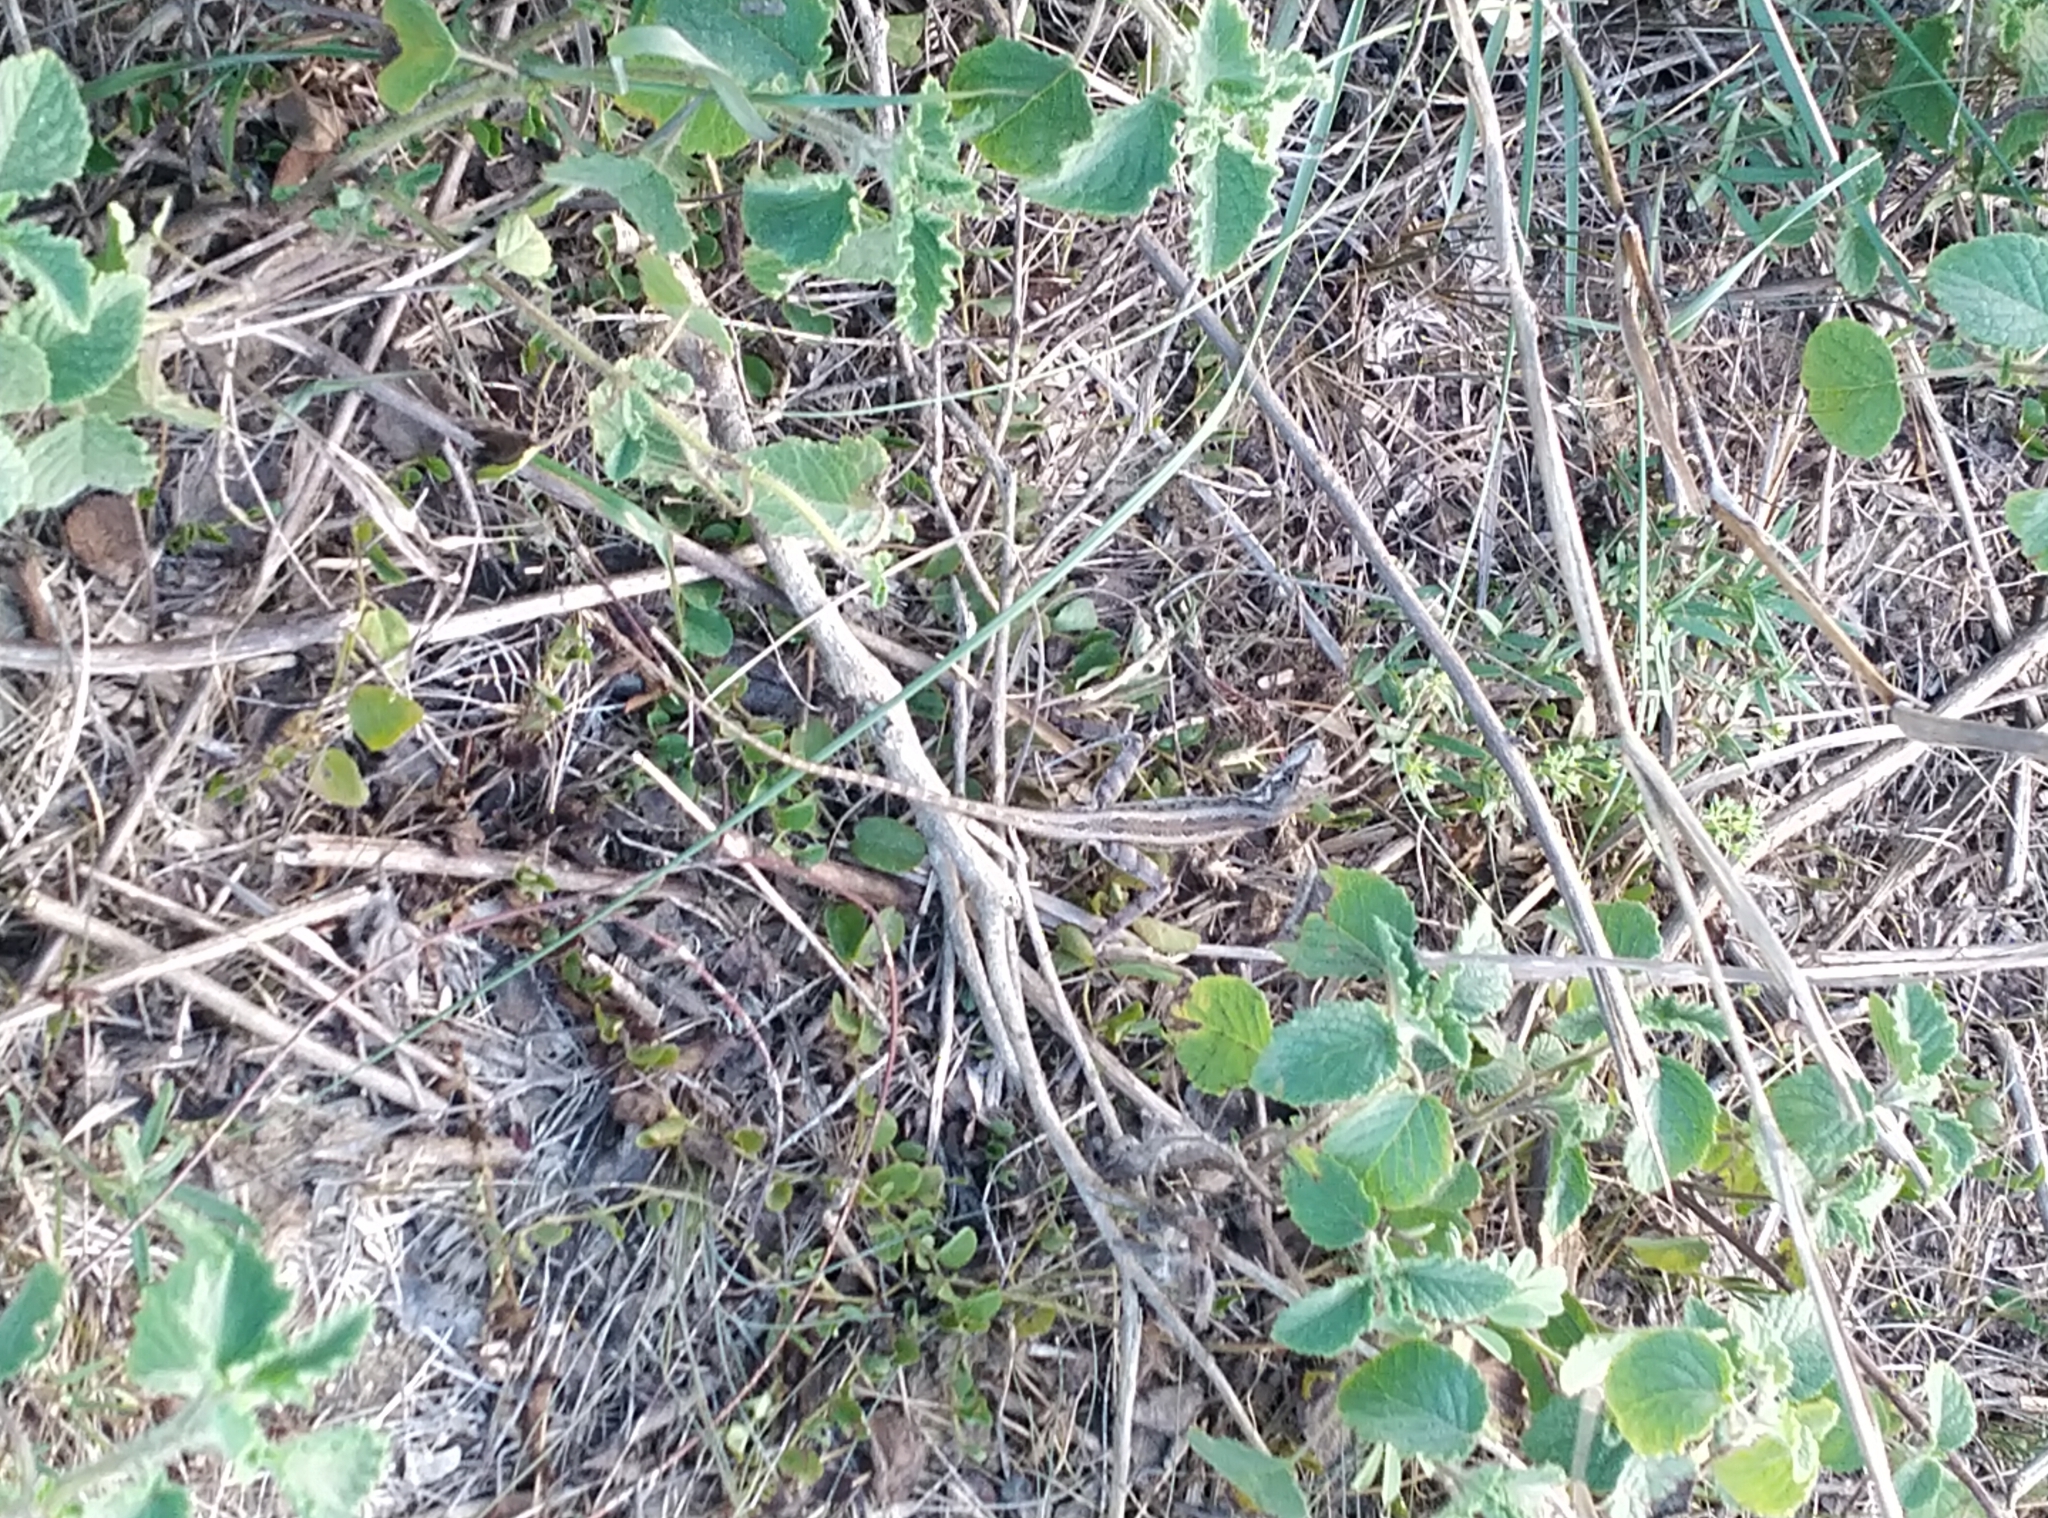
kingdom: Animalia
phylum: Chordata
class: Squamata
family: Agamidae
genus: Sitana
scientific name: Sitana ponticeriana
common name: Pondichéry fan throated lizard
